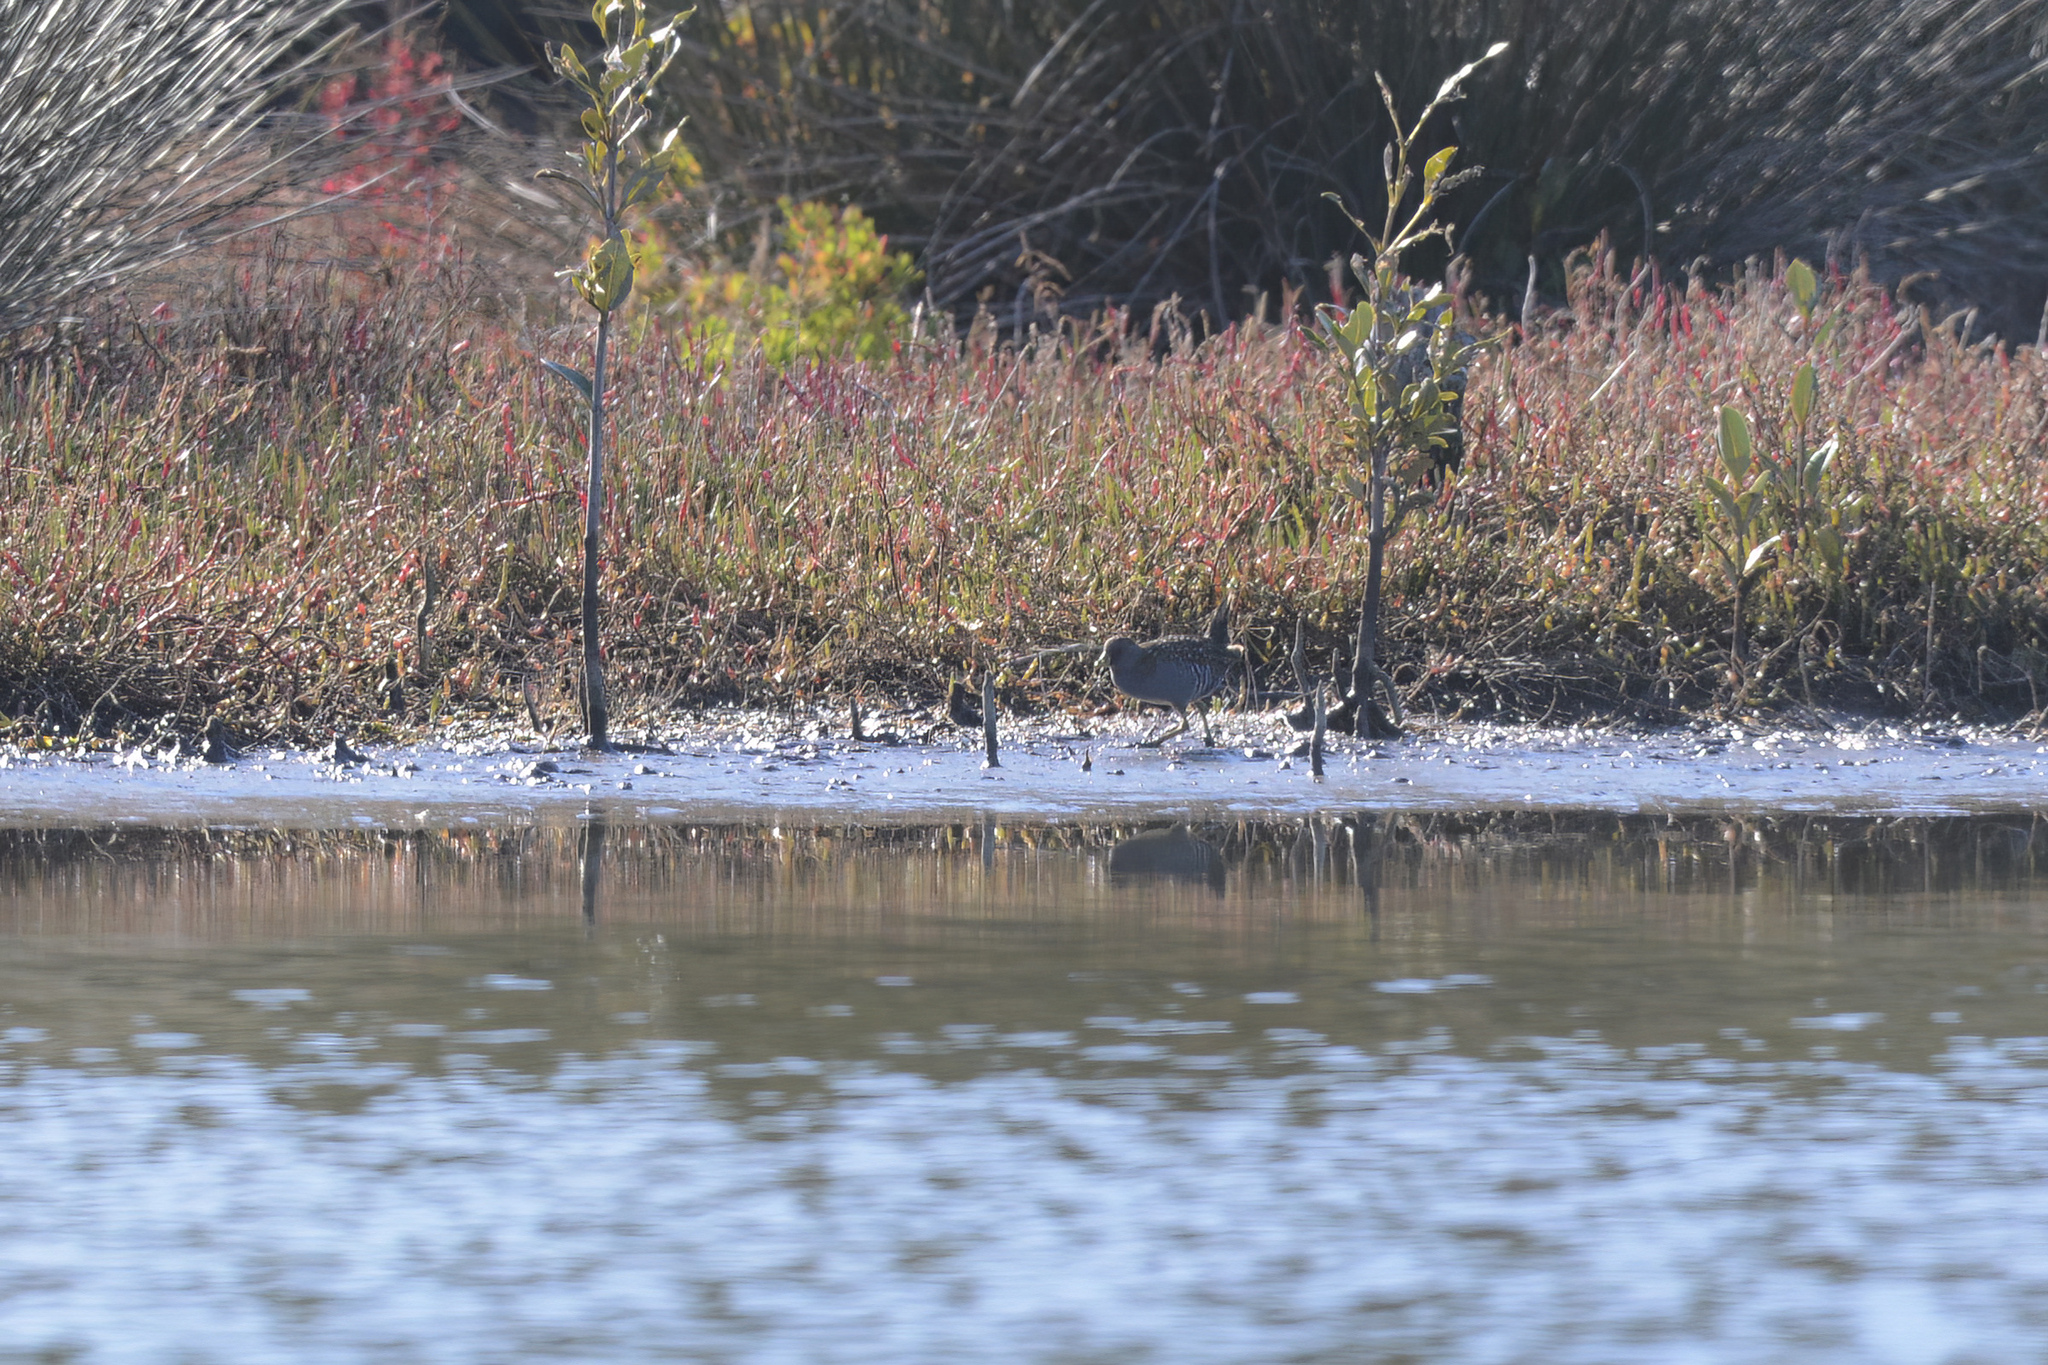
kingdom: Animalia
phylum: Chordata
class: Aves
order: Gruiformes
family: Rallidae
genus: Porzana
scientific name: Porzana fluminea
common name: Australian crake
